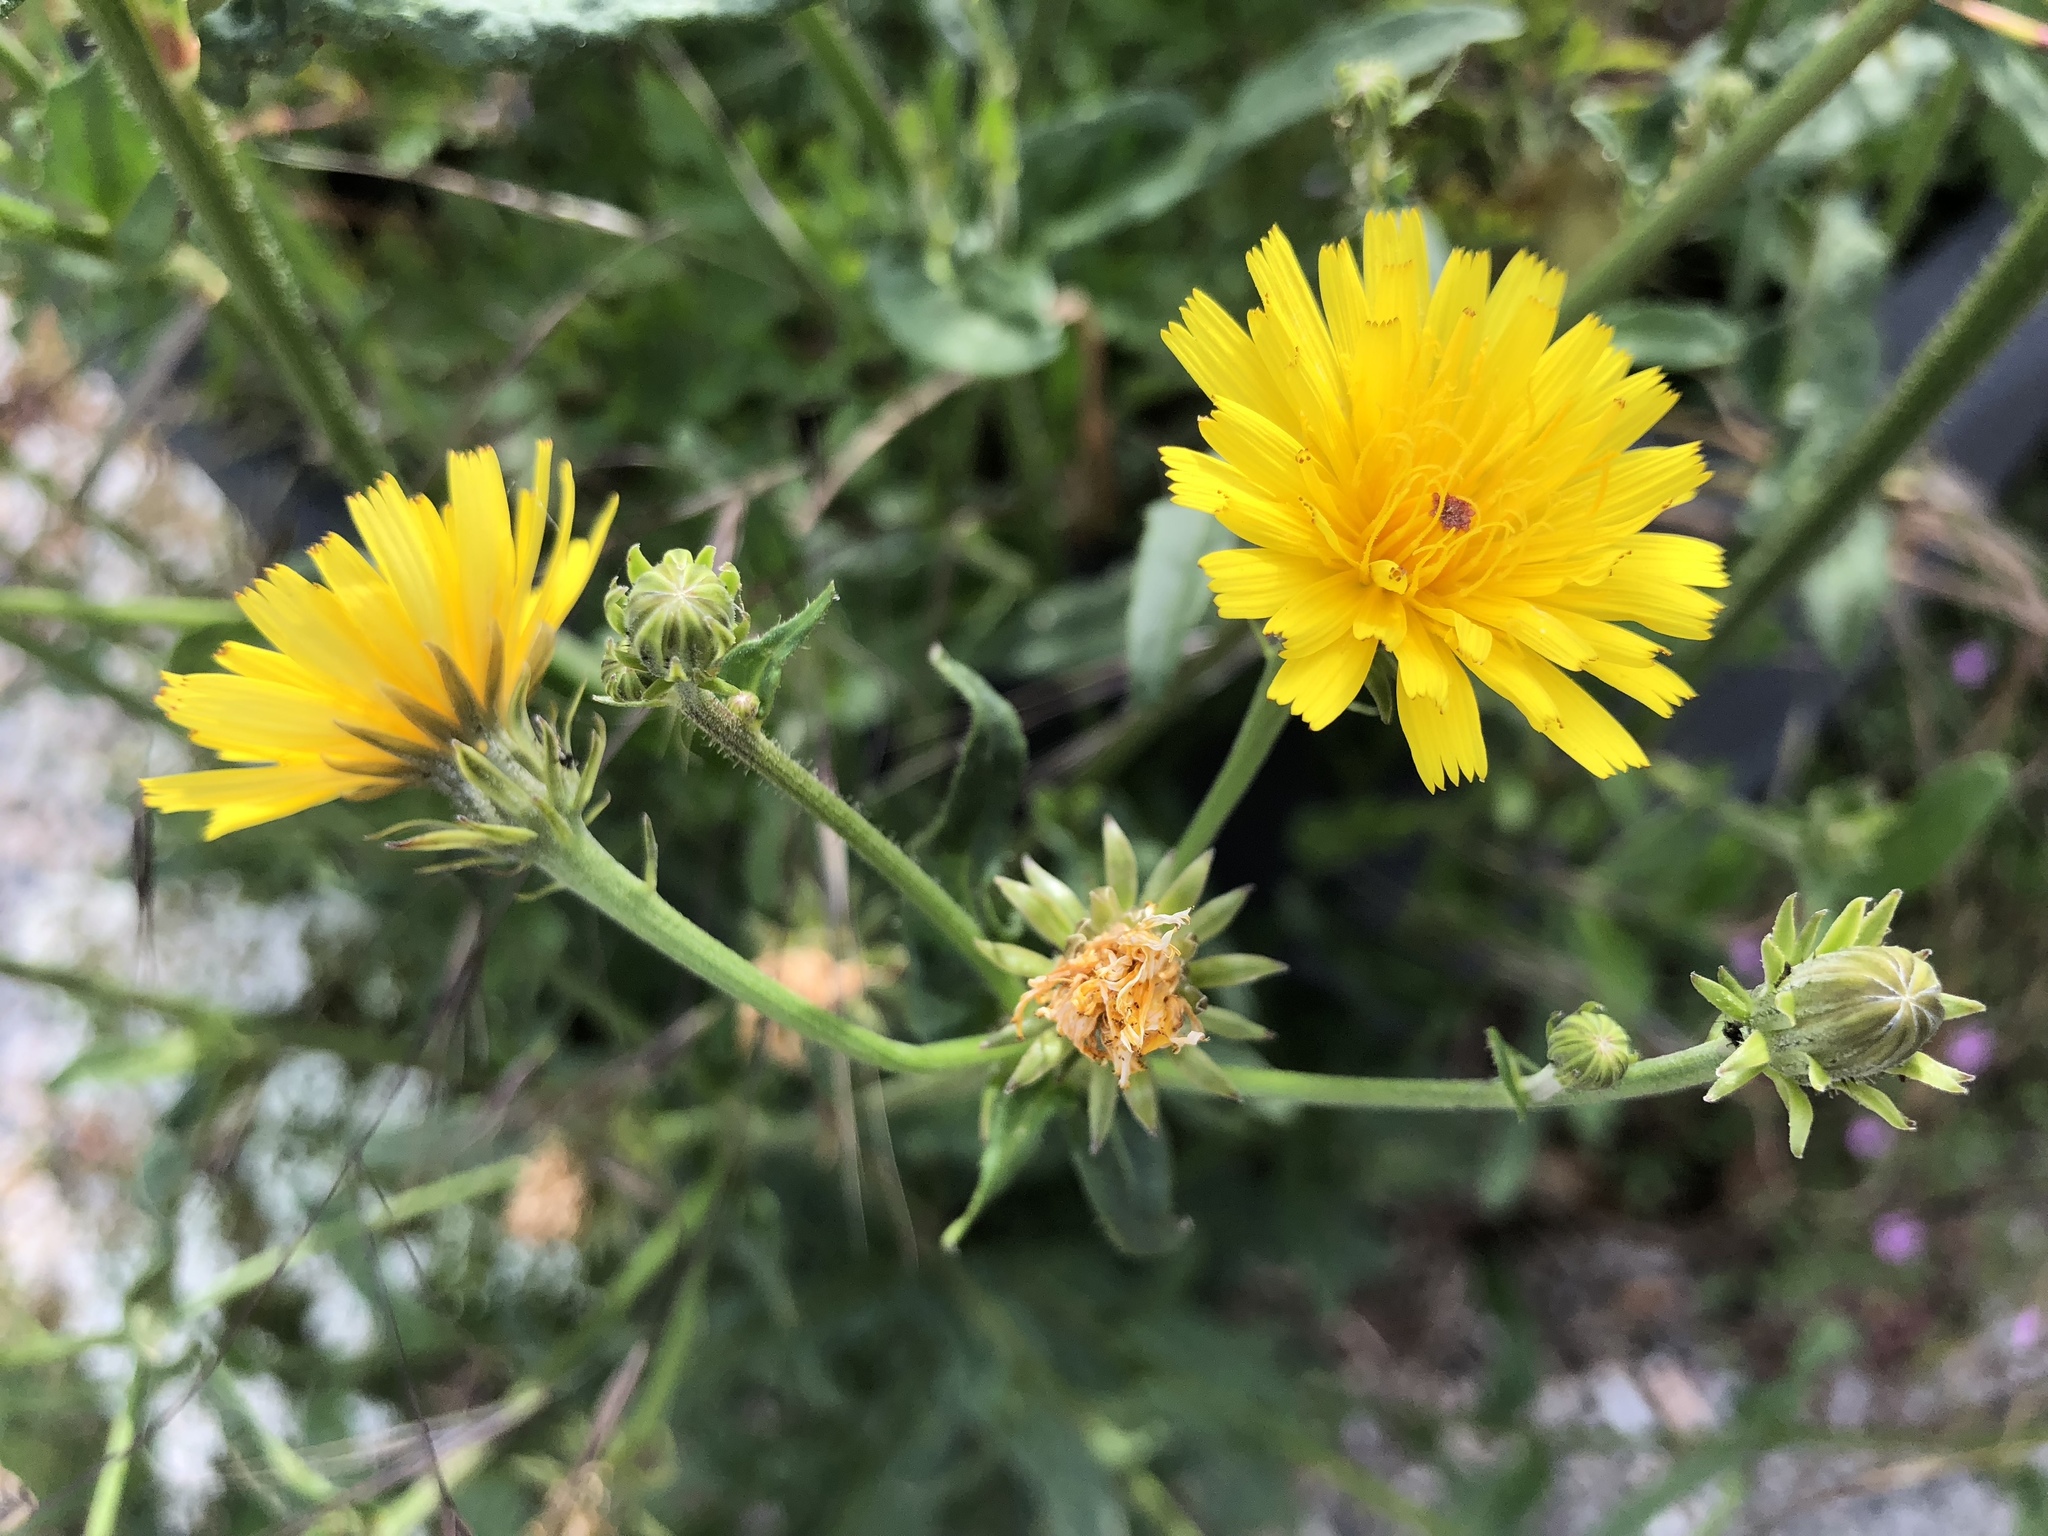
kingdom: Plantae
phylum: Tracheophyta
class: Magnoliopsida
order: Asterales
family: Asteraceae
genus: Picris
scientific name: Picris hieracioides
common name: Hawkweed oxtongue
